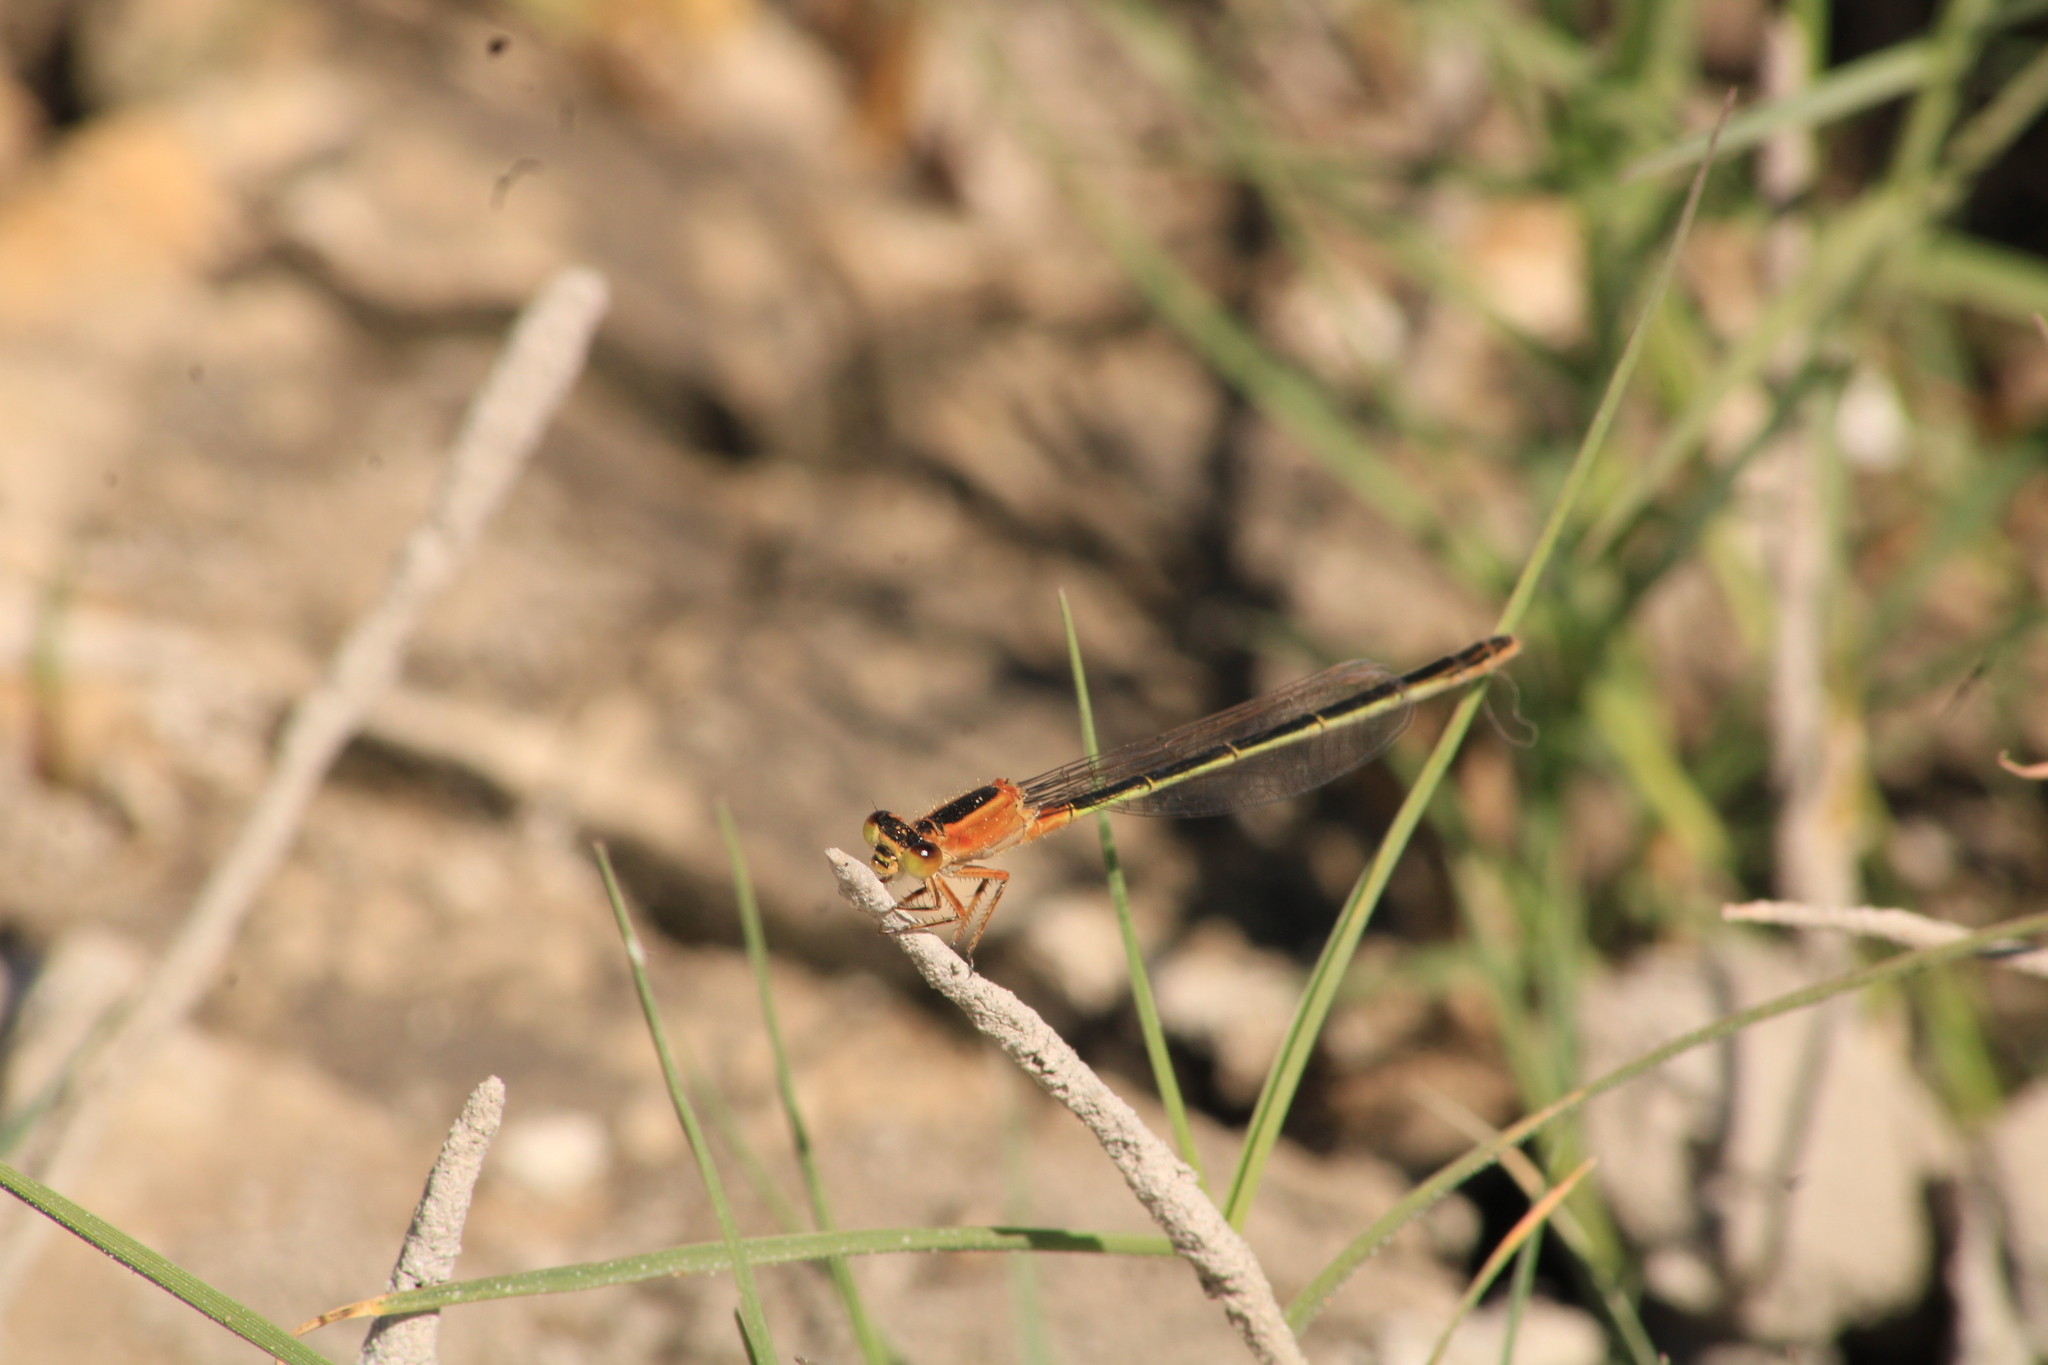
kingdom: Animalia
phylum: Arthropoda
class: Insecta
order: Odonata
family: Coenagrionidae
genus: Ischnura
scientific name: Ischnura ramburii
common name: Rambur's forktail
